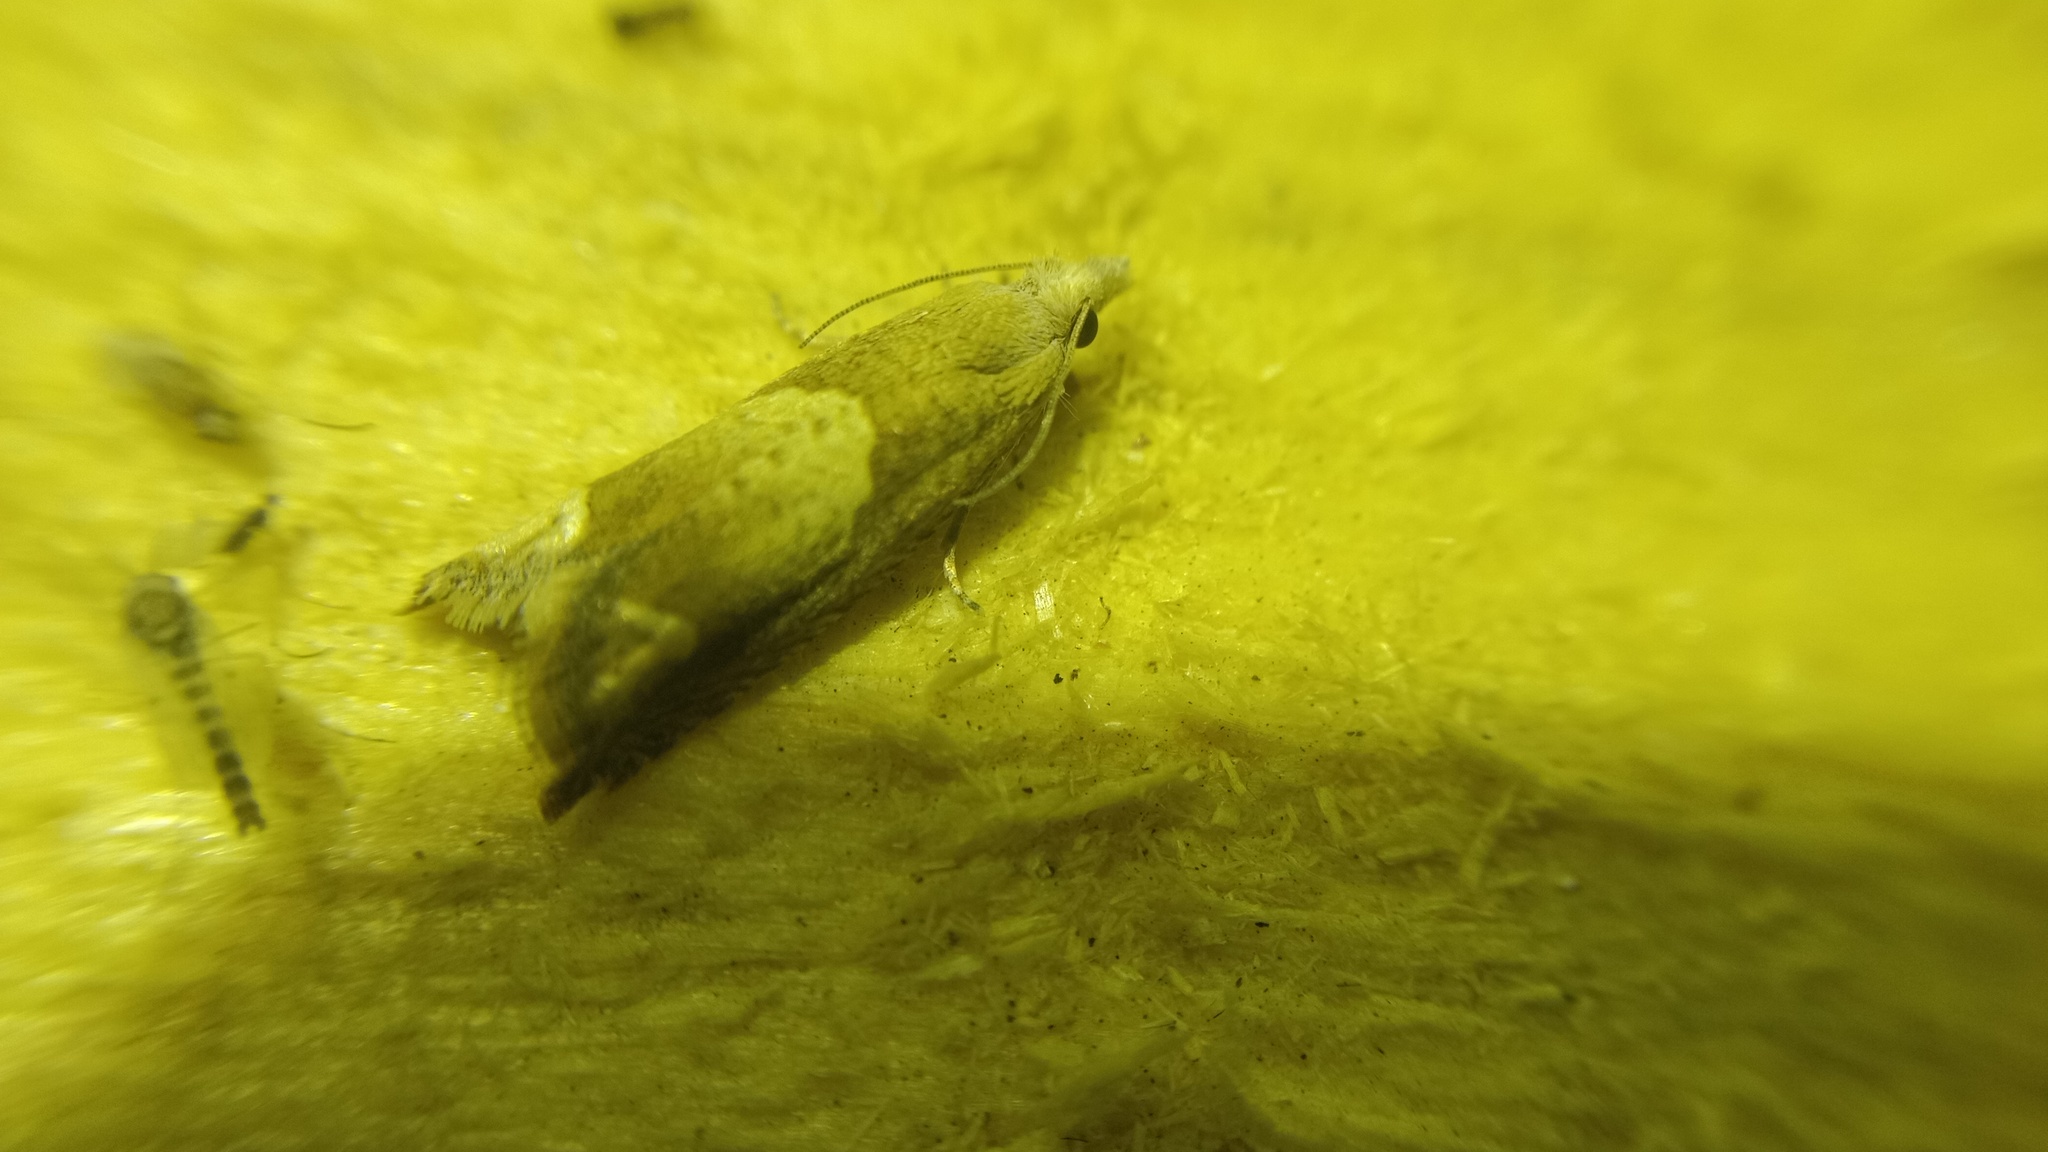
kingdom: Animalia
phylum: Arthropoda
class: Insecta
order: Lepidoptera
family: Tortricidae
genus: Eucosma
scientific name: Eucosma conterminana
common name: Pale lettuce bell
